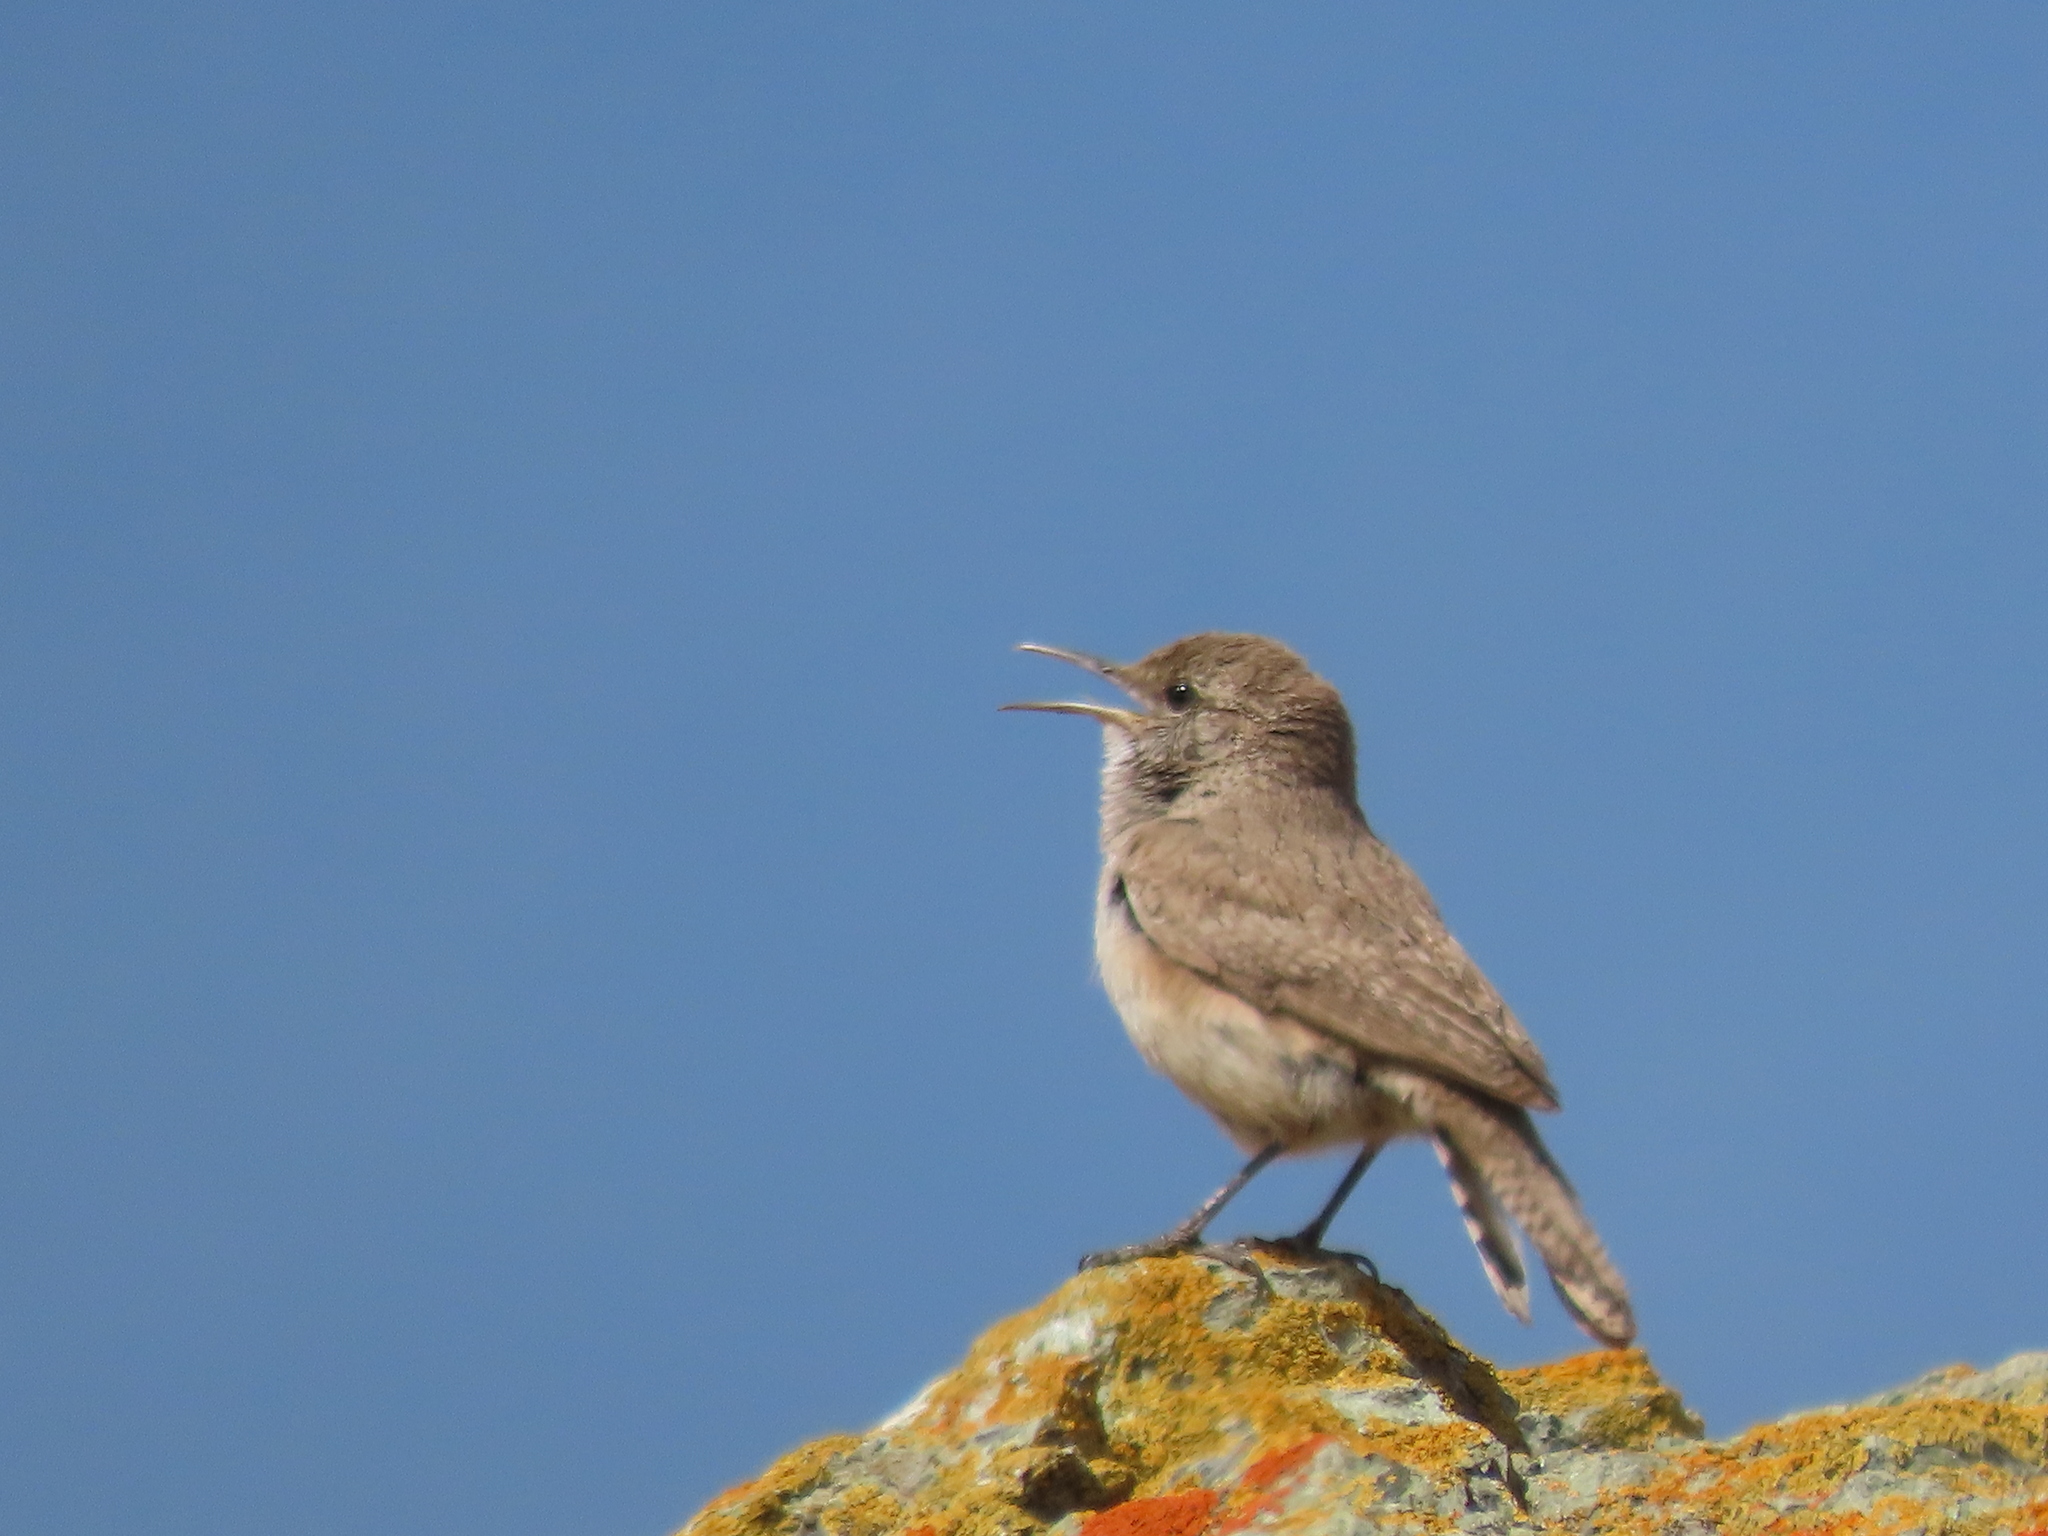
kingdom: Animalia
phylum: Chordata
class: Aves
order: Passeriformes
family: Troglodytidae
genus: Salpinctes
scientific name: Salpinctes obsoletus
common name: Rock wren
